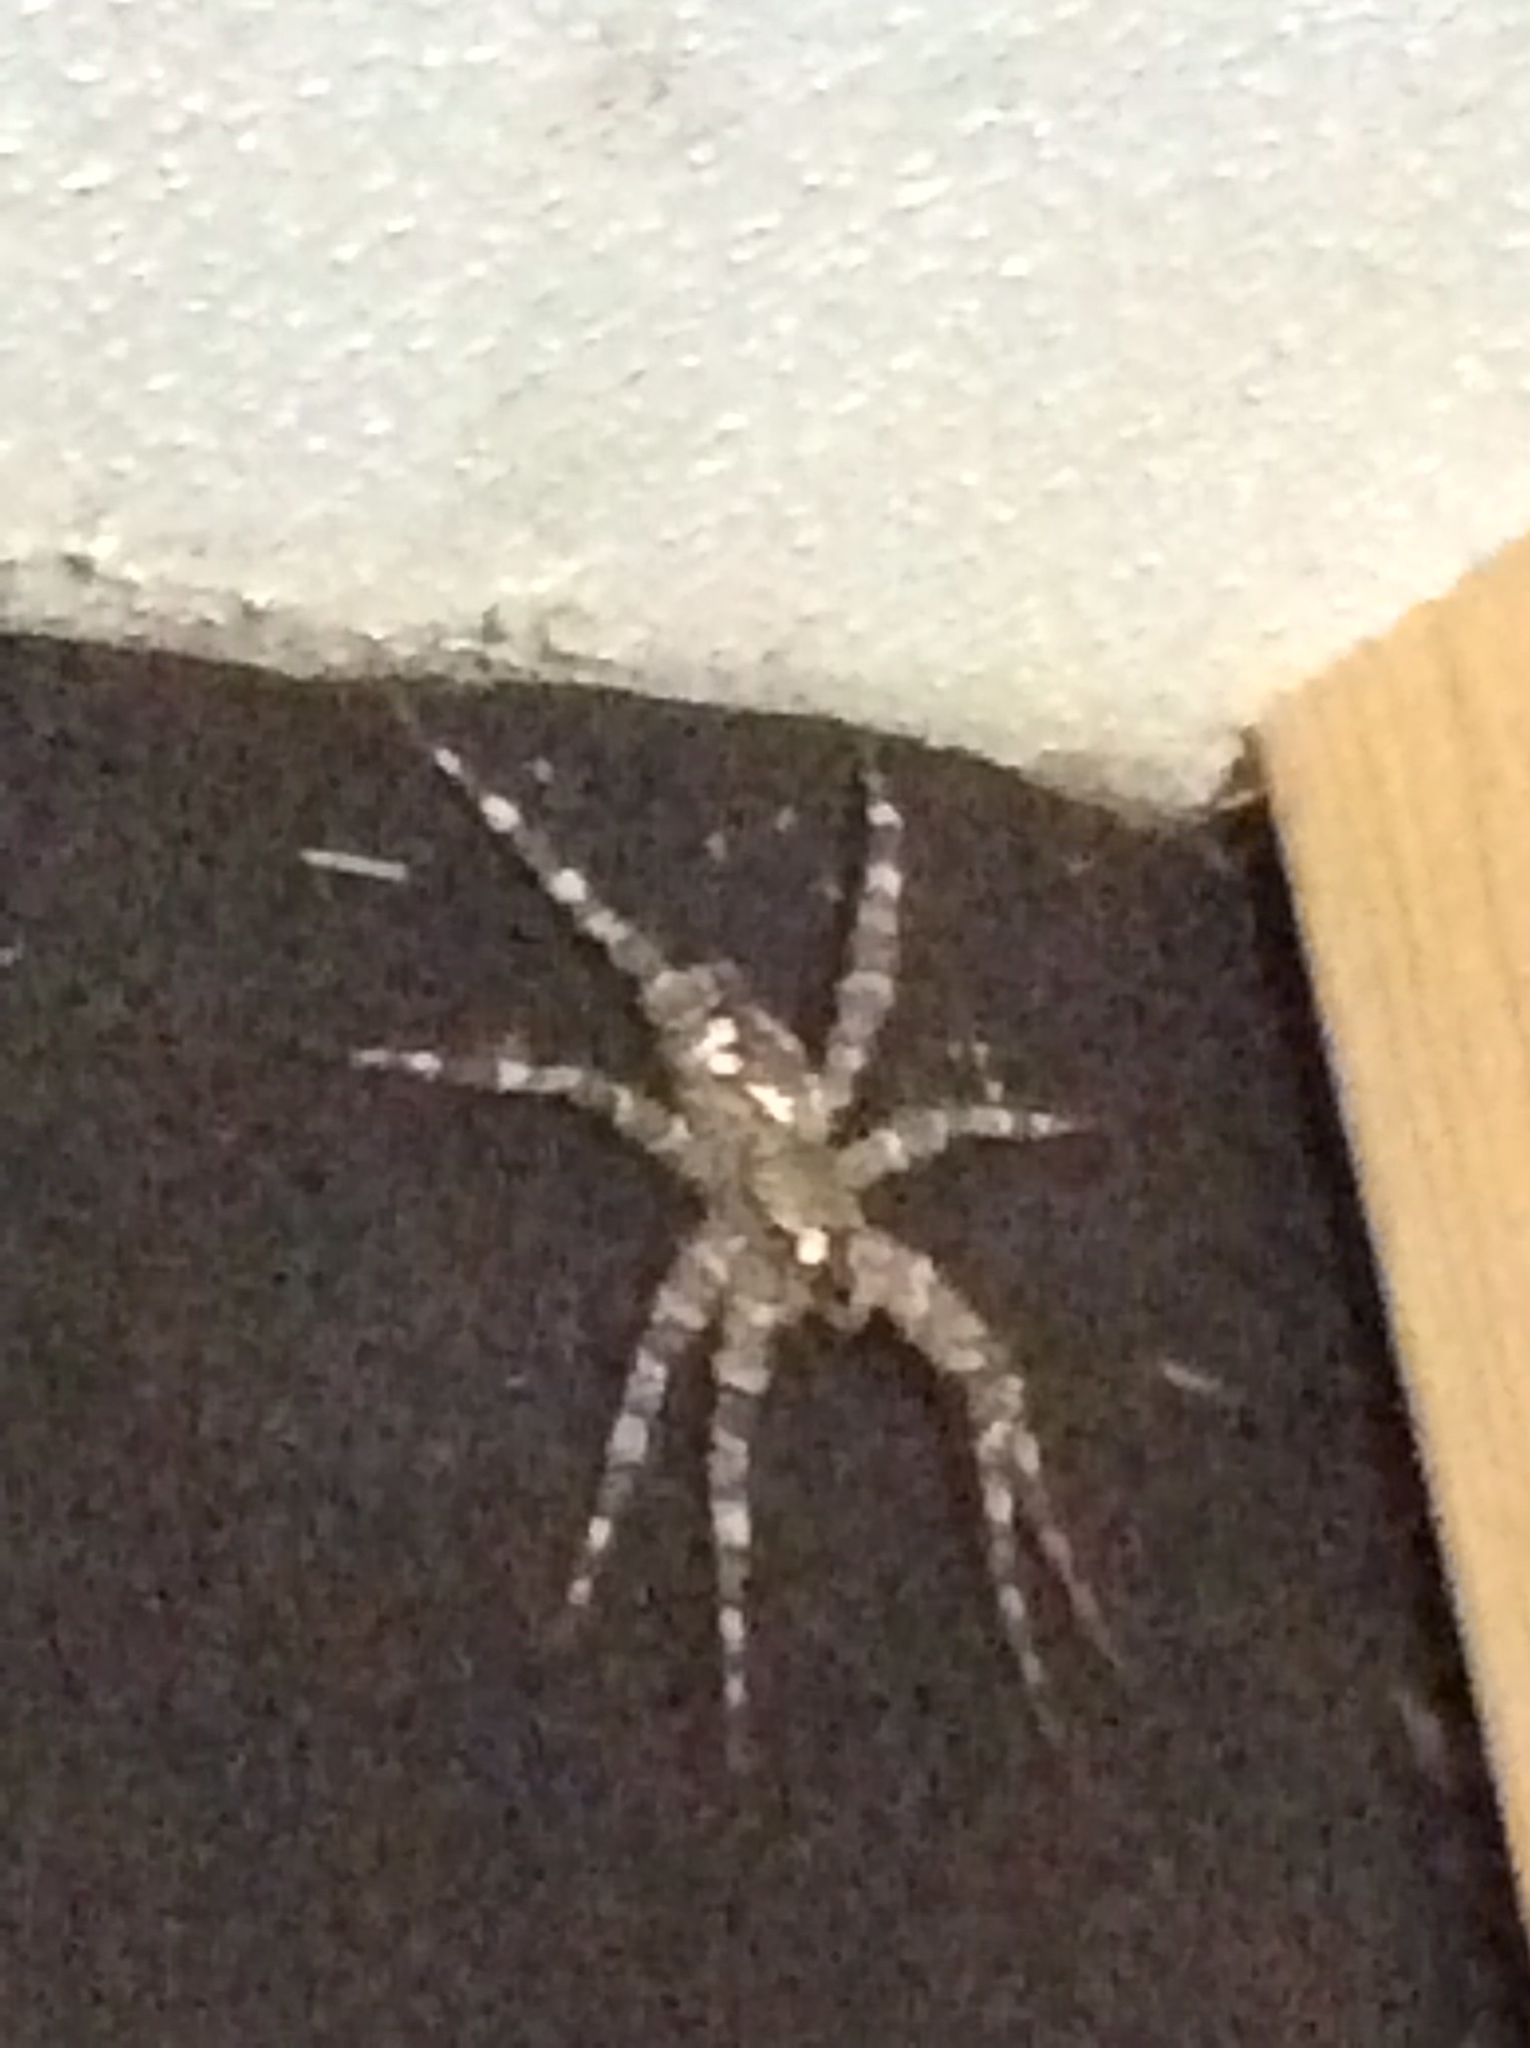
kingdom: Animalia
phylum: Arthropoda
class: Arachnida
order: Araneae
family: Pisauridae
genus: Dolomedes
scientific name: Dolomedes albineus
